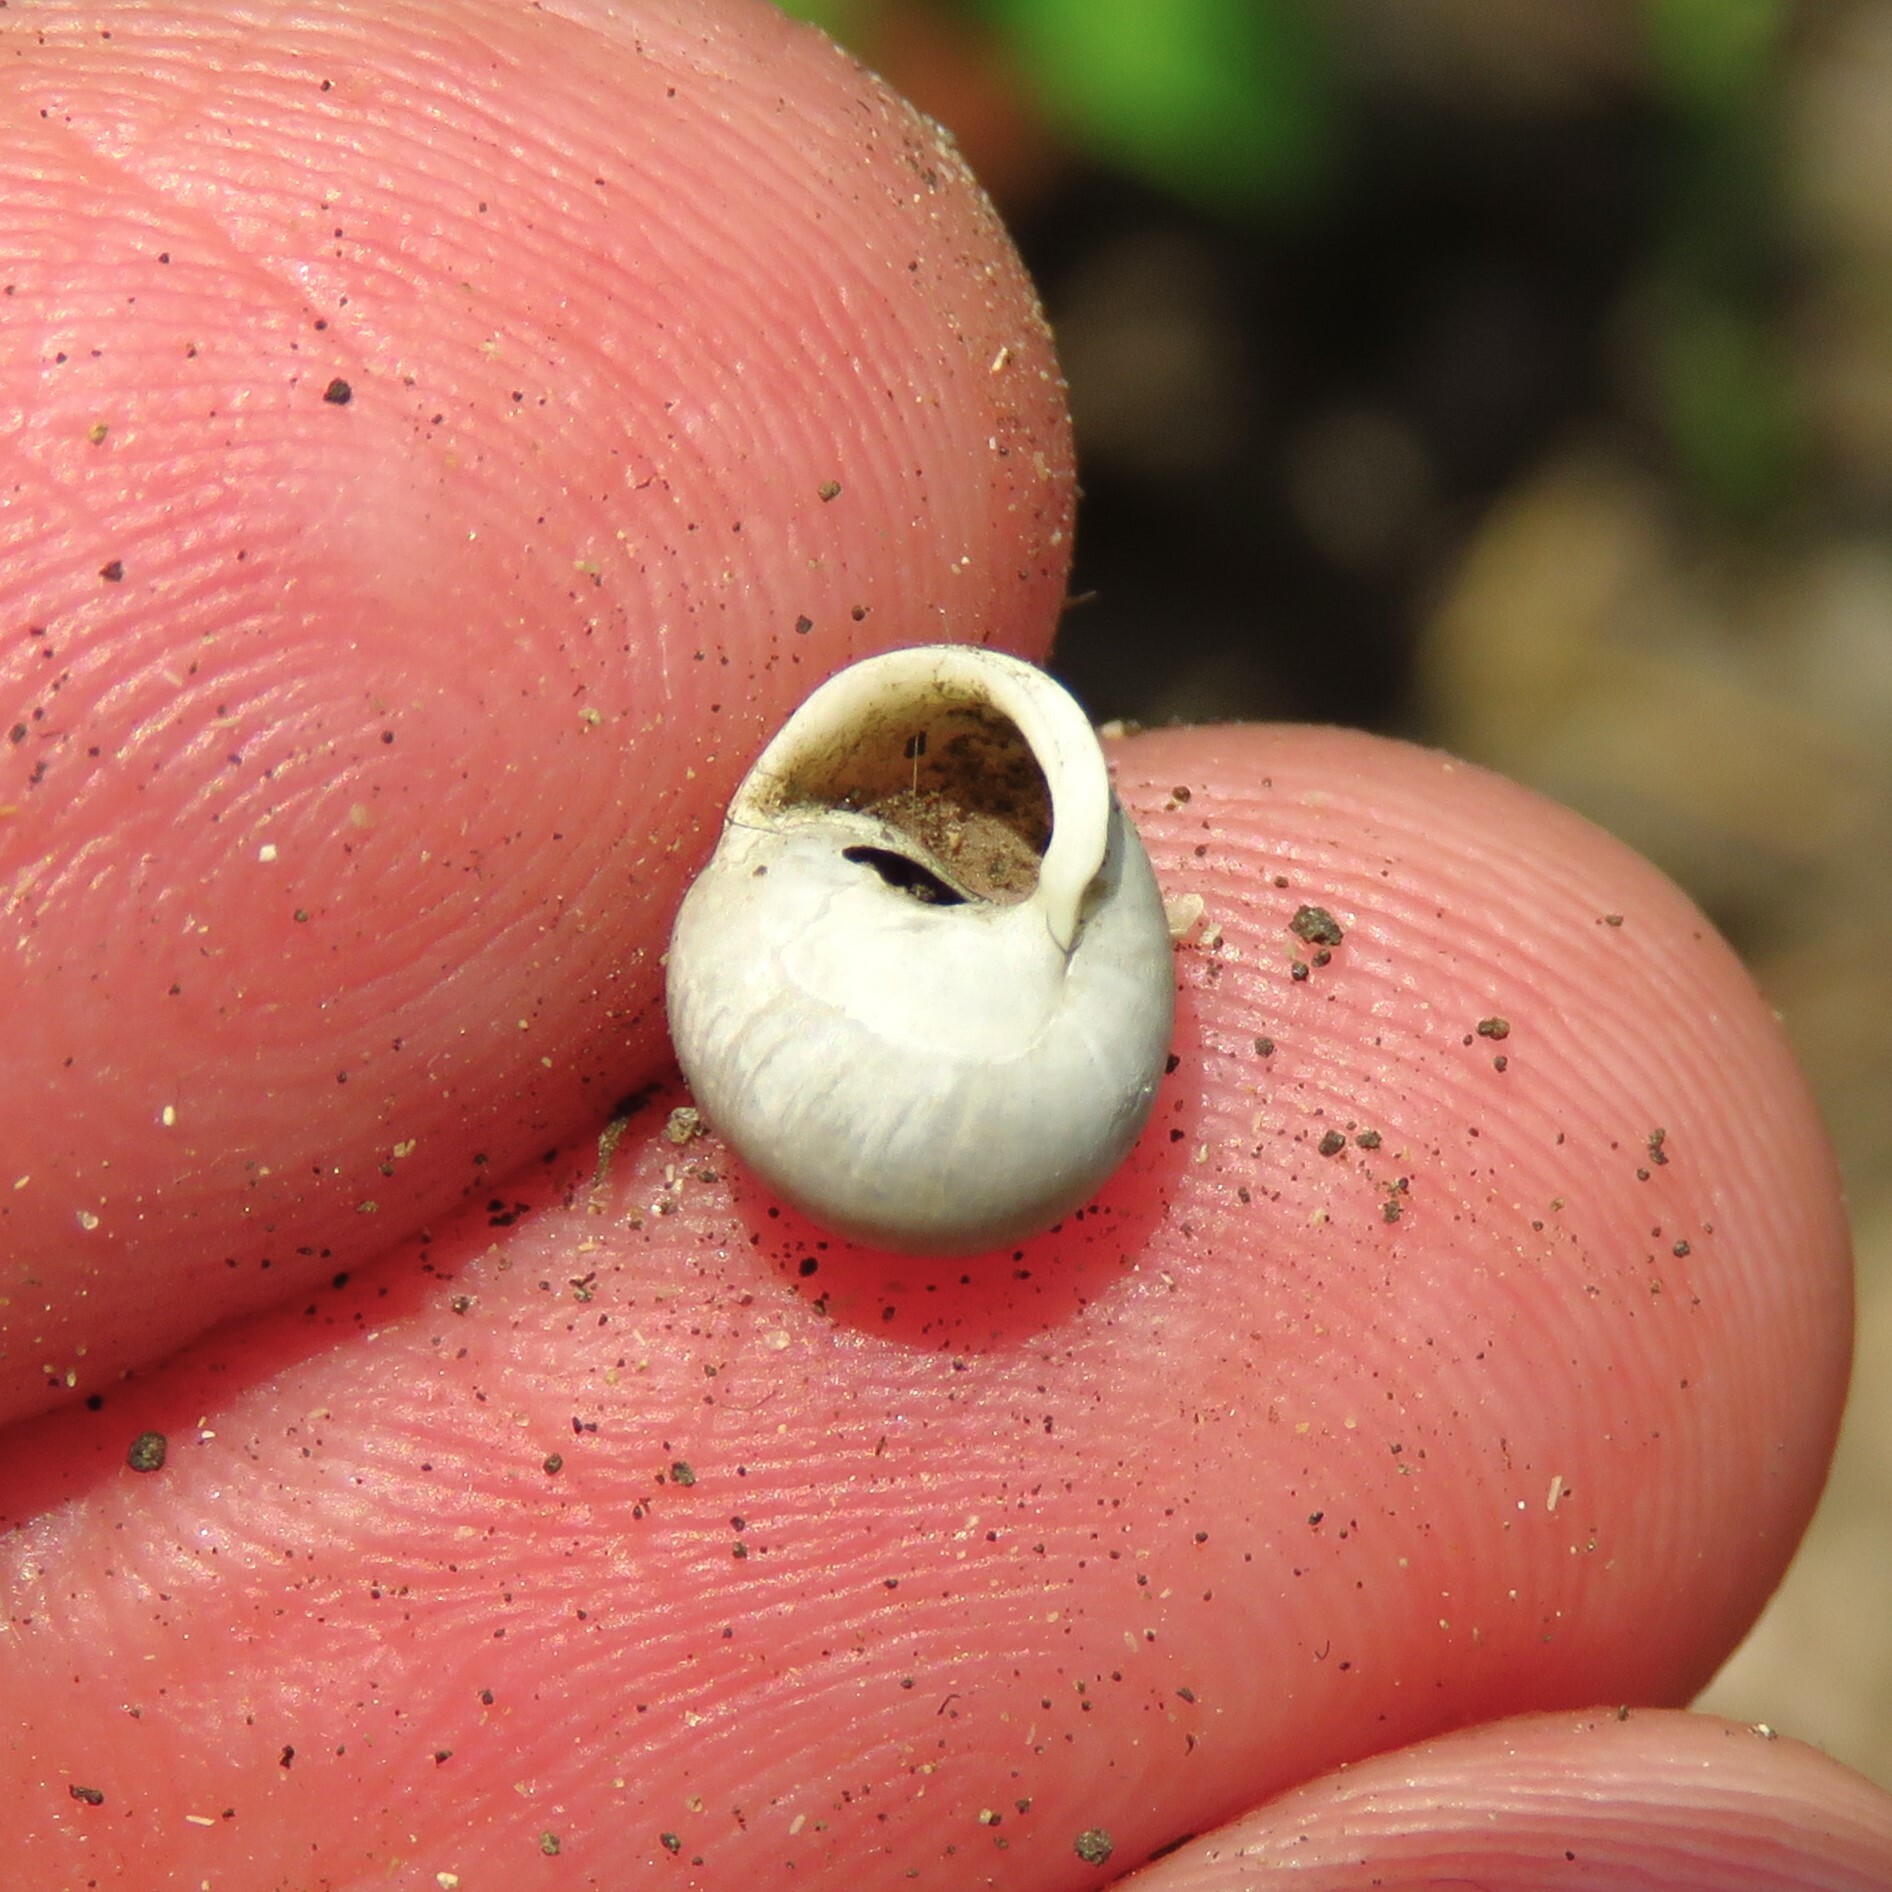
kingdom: Animalia
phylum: Mollusca
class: Gastropoda
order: Cycloneritida
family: Helicinidae
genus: Helicina
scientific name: Helicina orbiculata
